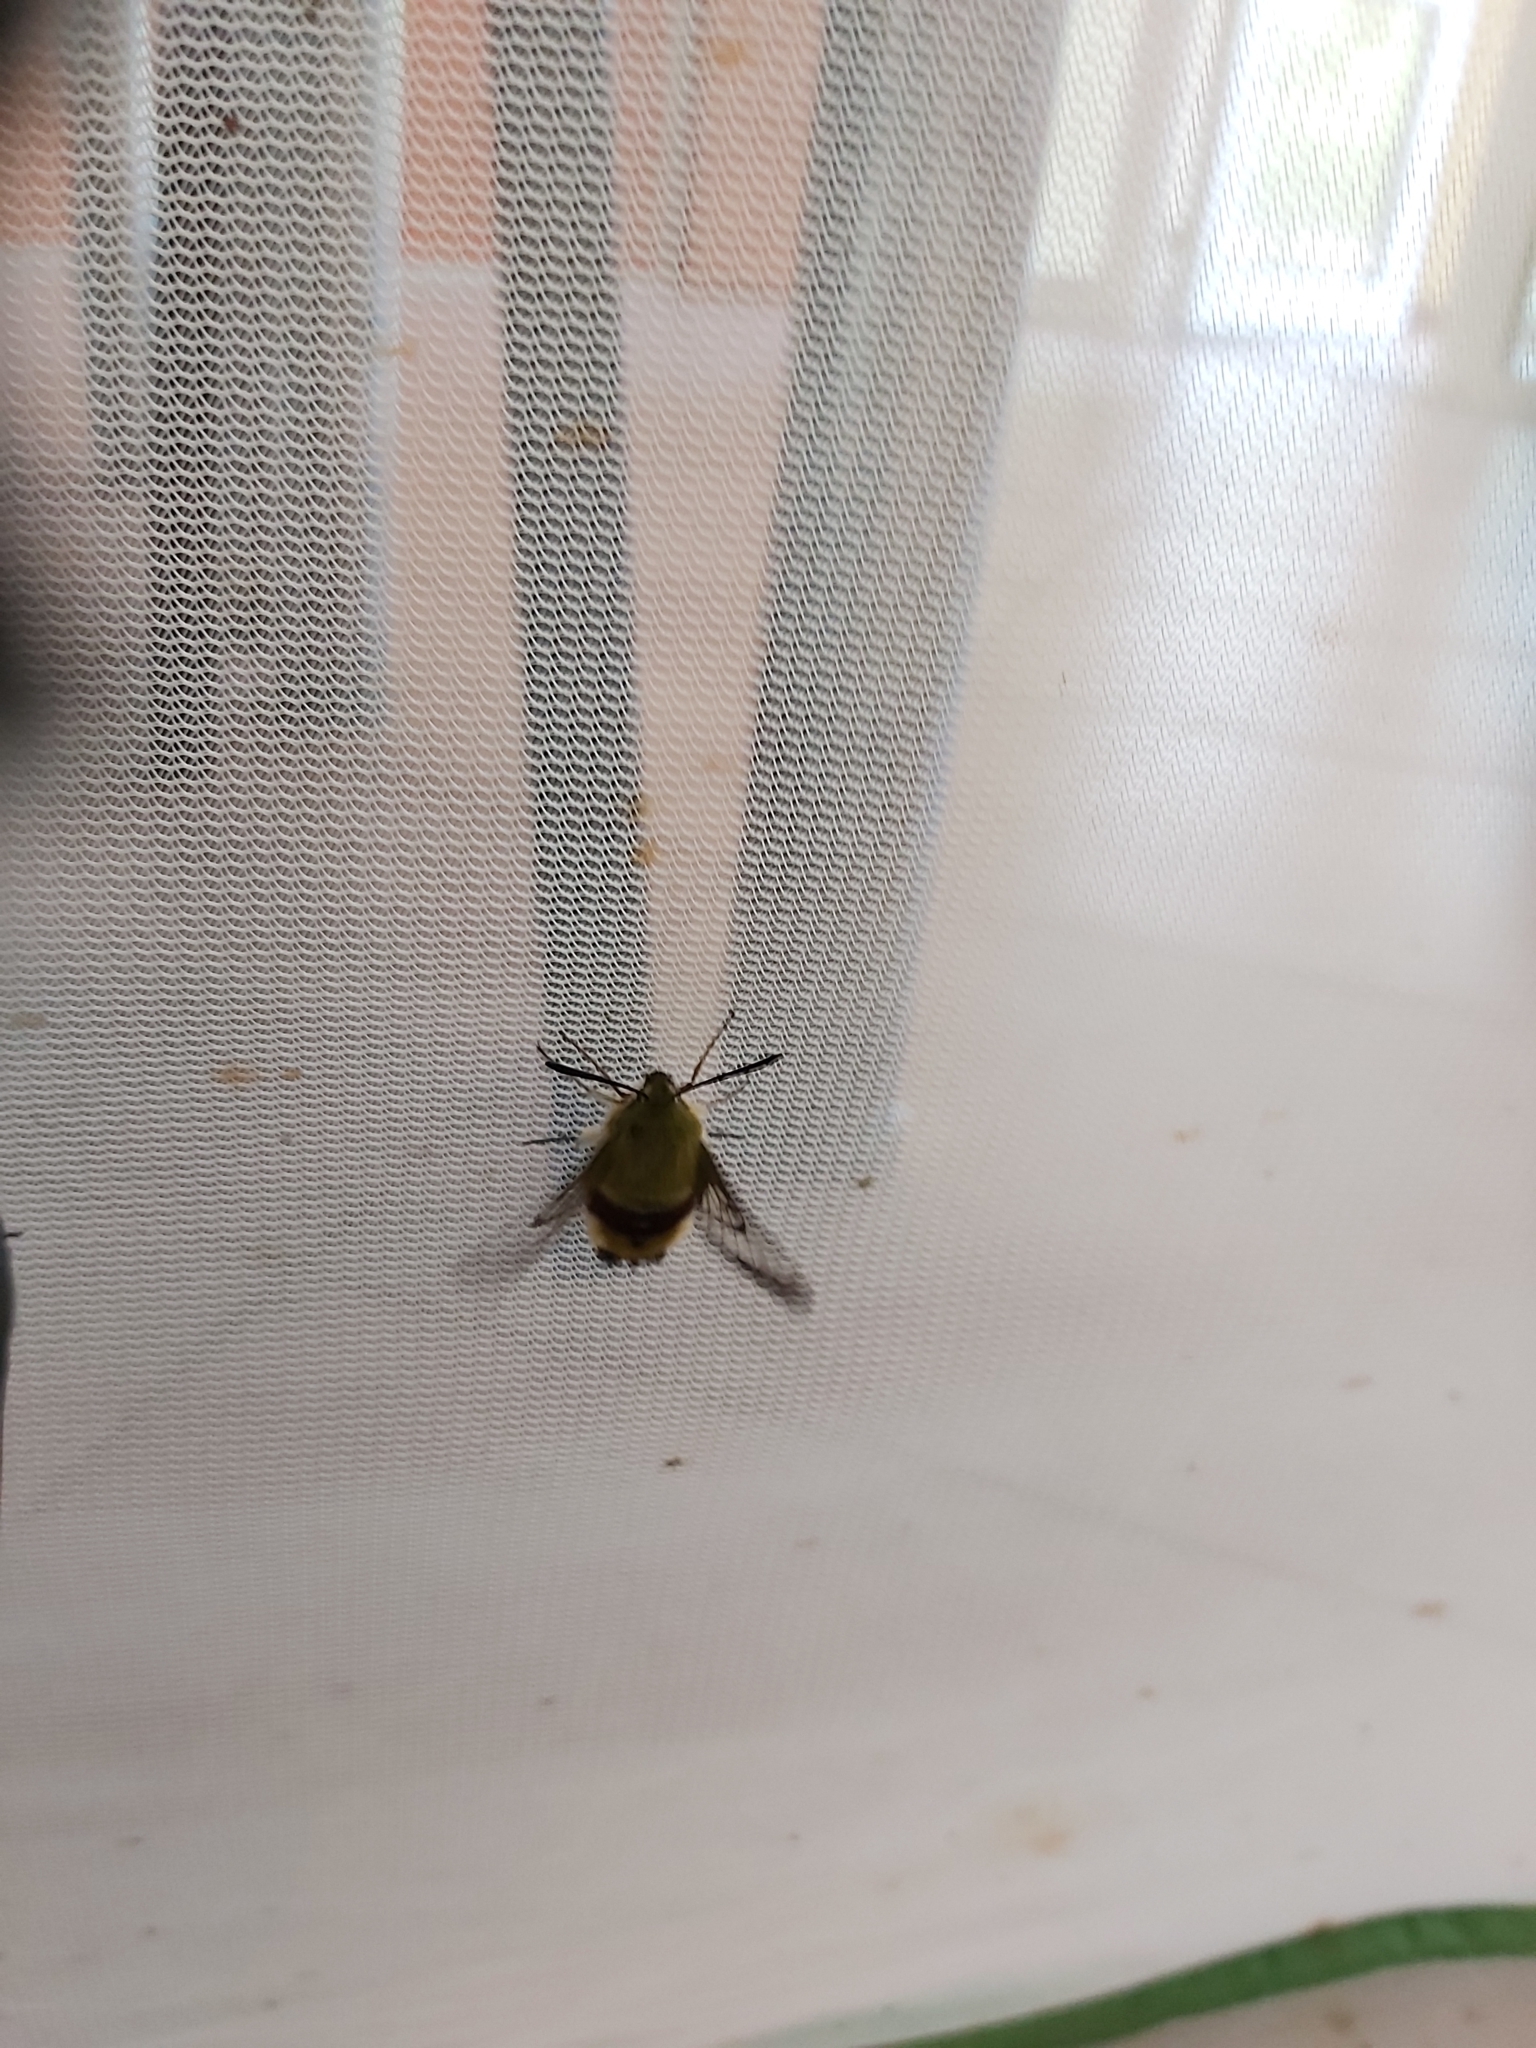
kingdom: Animalia
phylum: Arthropoda
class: Insecta
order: Lepidoptera
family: Sphingidae
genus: Hemaris
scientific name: Hemaris fuciformis
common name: Broad-bordered bee hawk-moth
